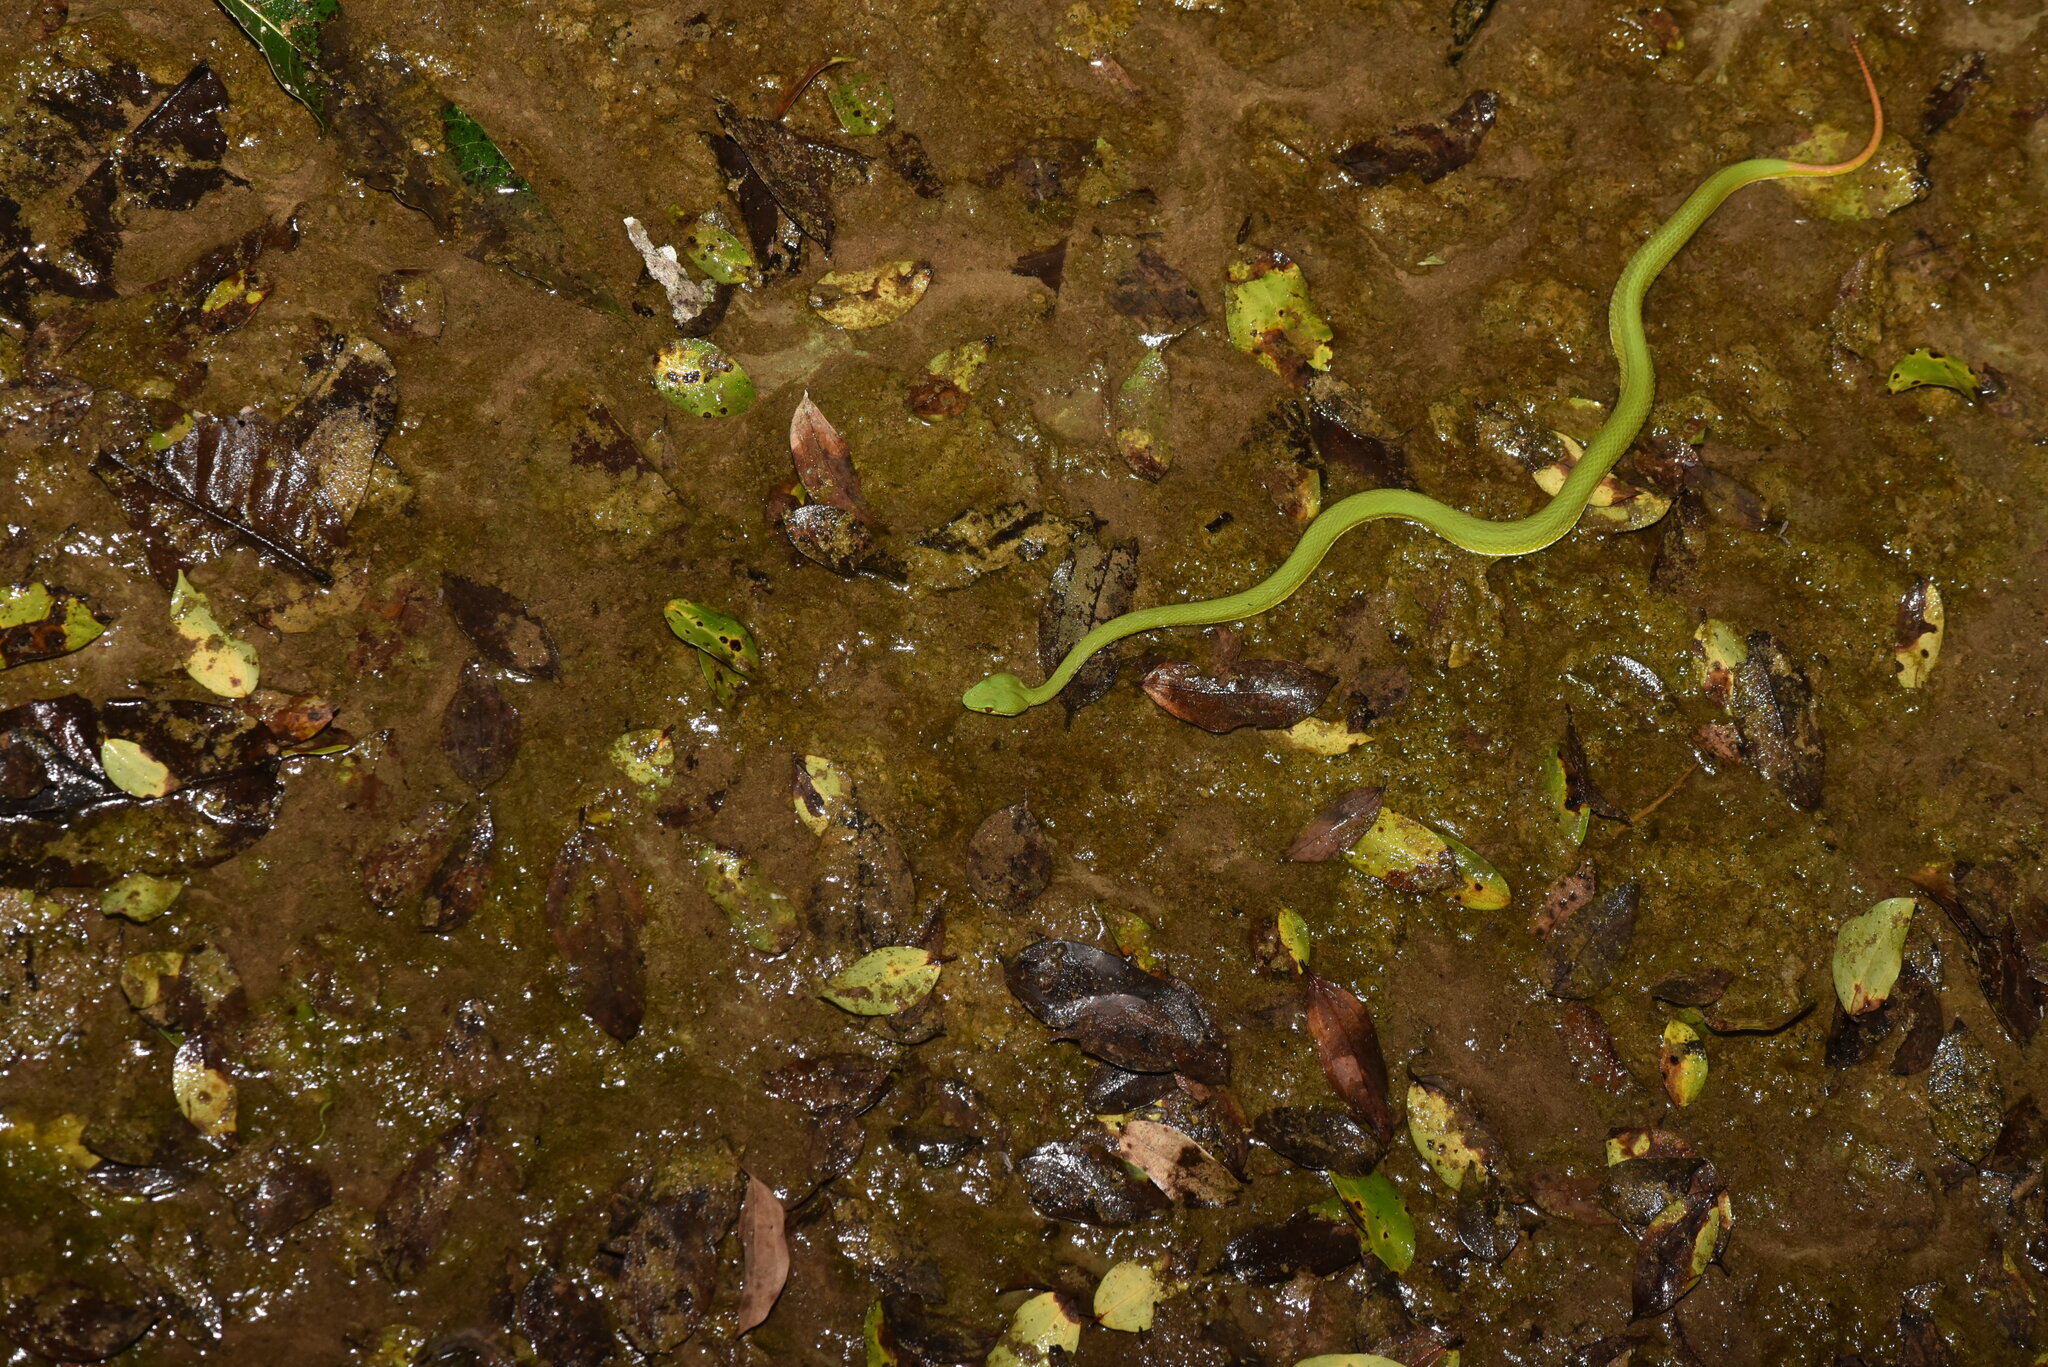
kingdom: Animalia
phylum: Chordata
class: Squamata
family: Viperidae
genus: Trimeresurus
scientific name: Trimeresurus stejnegeri
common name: Chen’s bamboo pit viper
